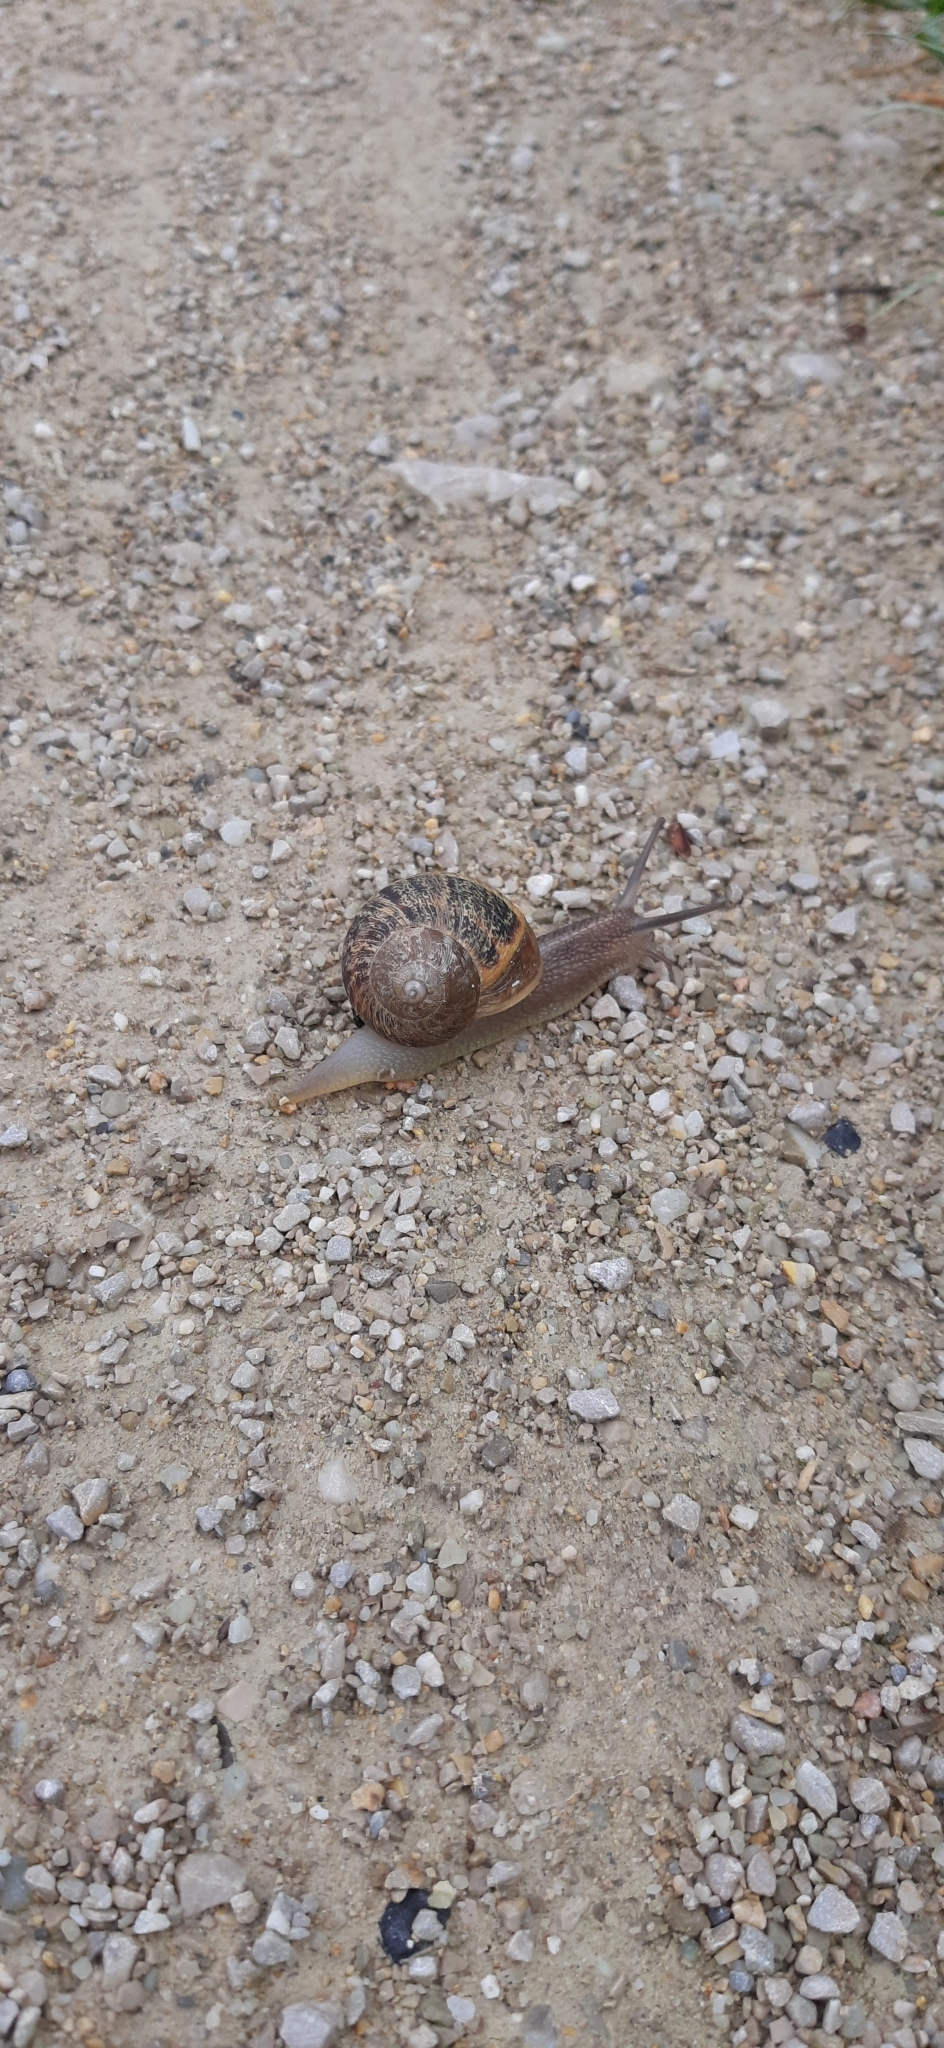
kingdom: Animalia
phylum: Mollusca
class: Gastropoda
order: Stylommatophora
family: Helicidae
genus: Cornu
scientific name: Cornu aspersum
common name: Brown garden snail
